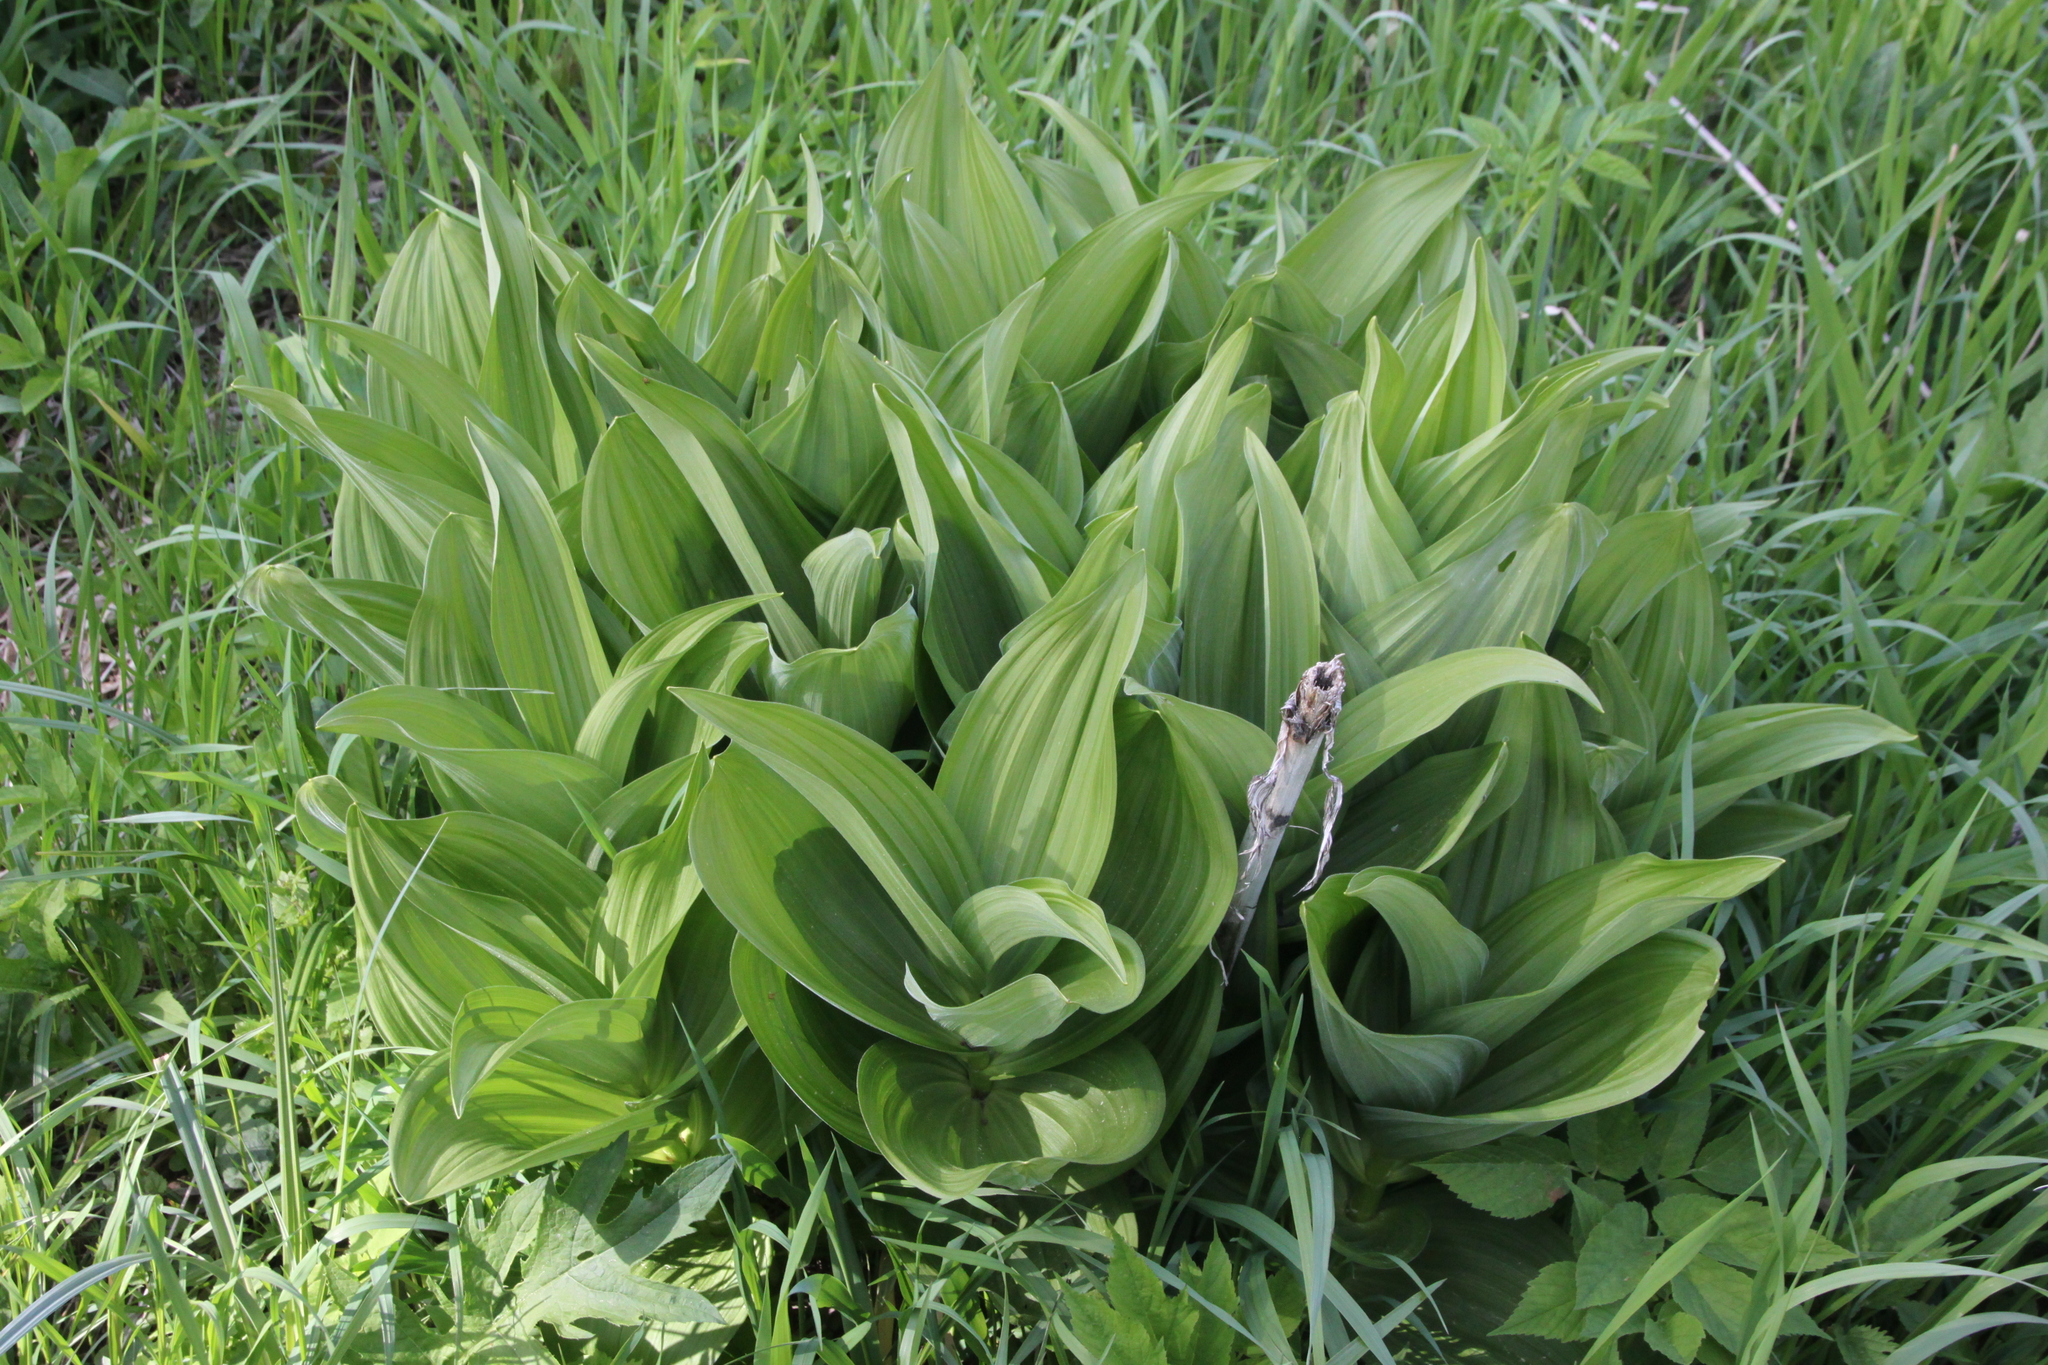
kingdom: Plantae
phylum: Tracheophyta
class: Liliopsida
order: Liliales
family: Melanthiaceae
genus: Veratrum
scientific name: Veratrum lobelianum
